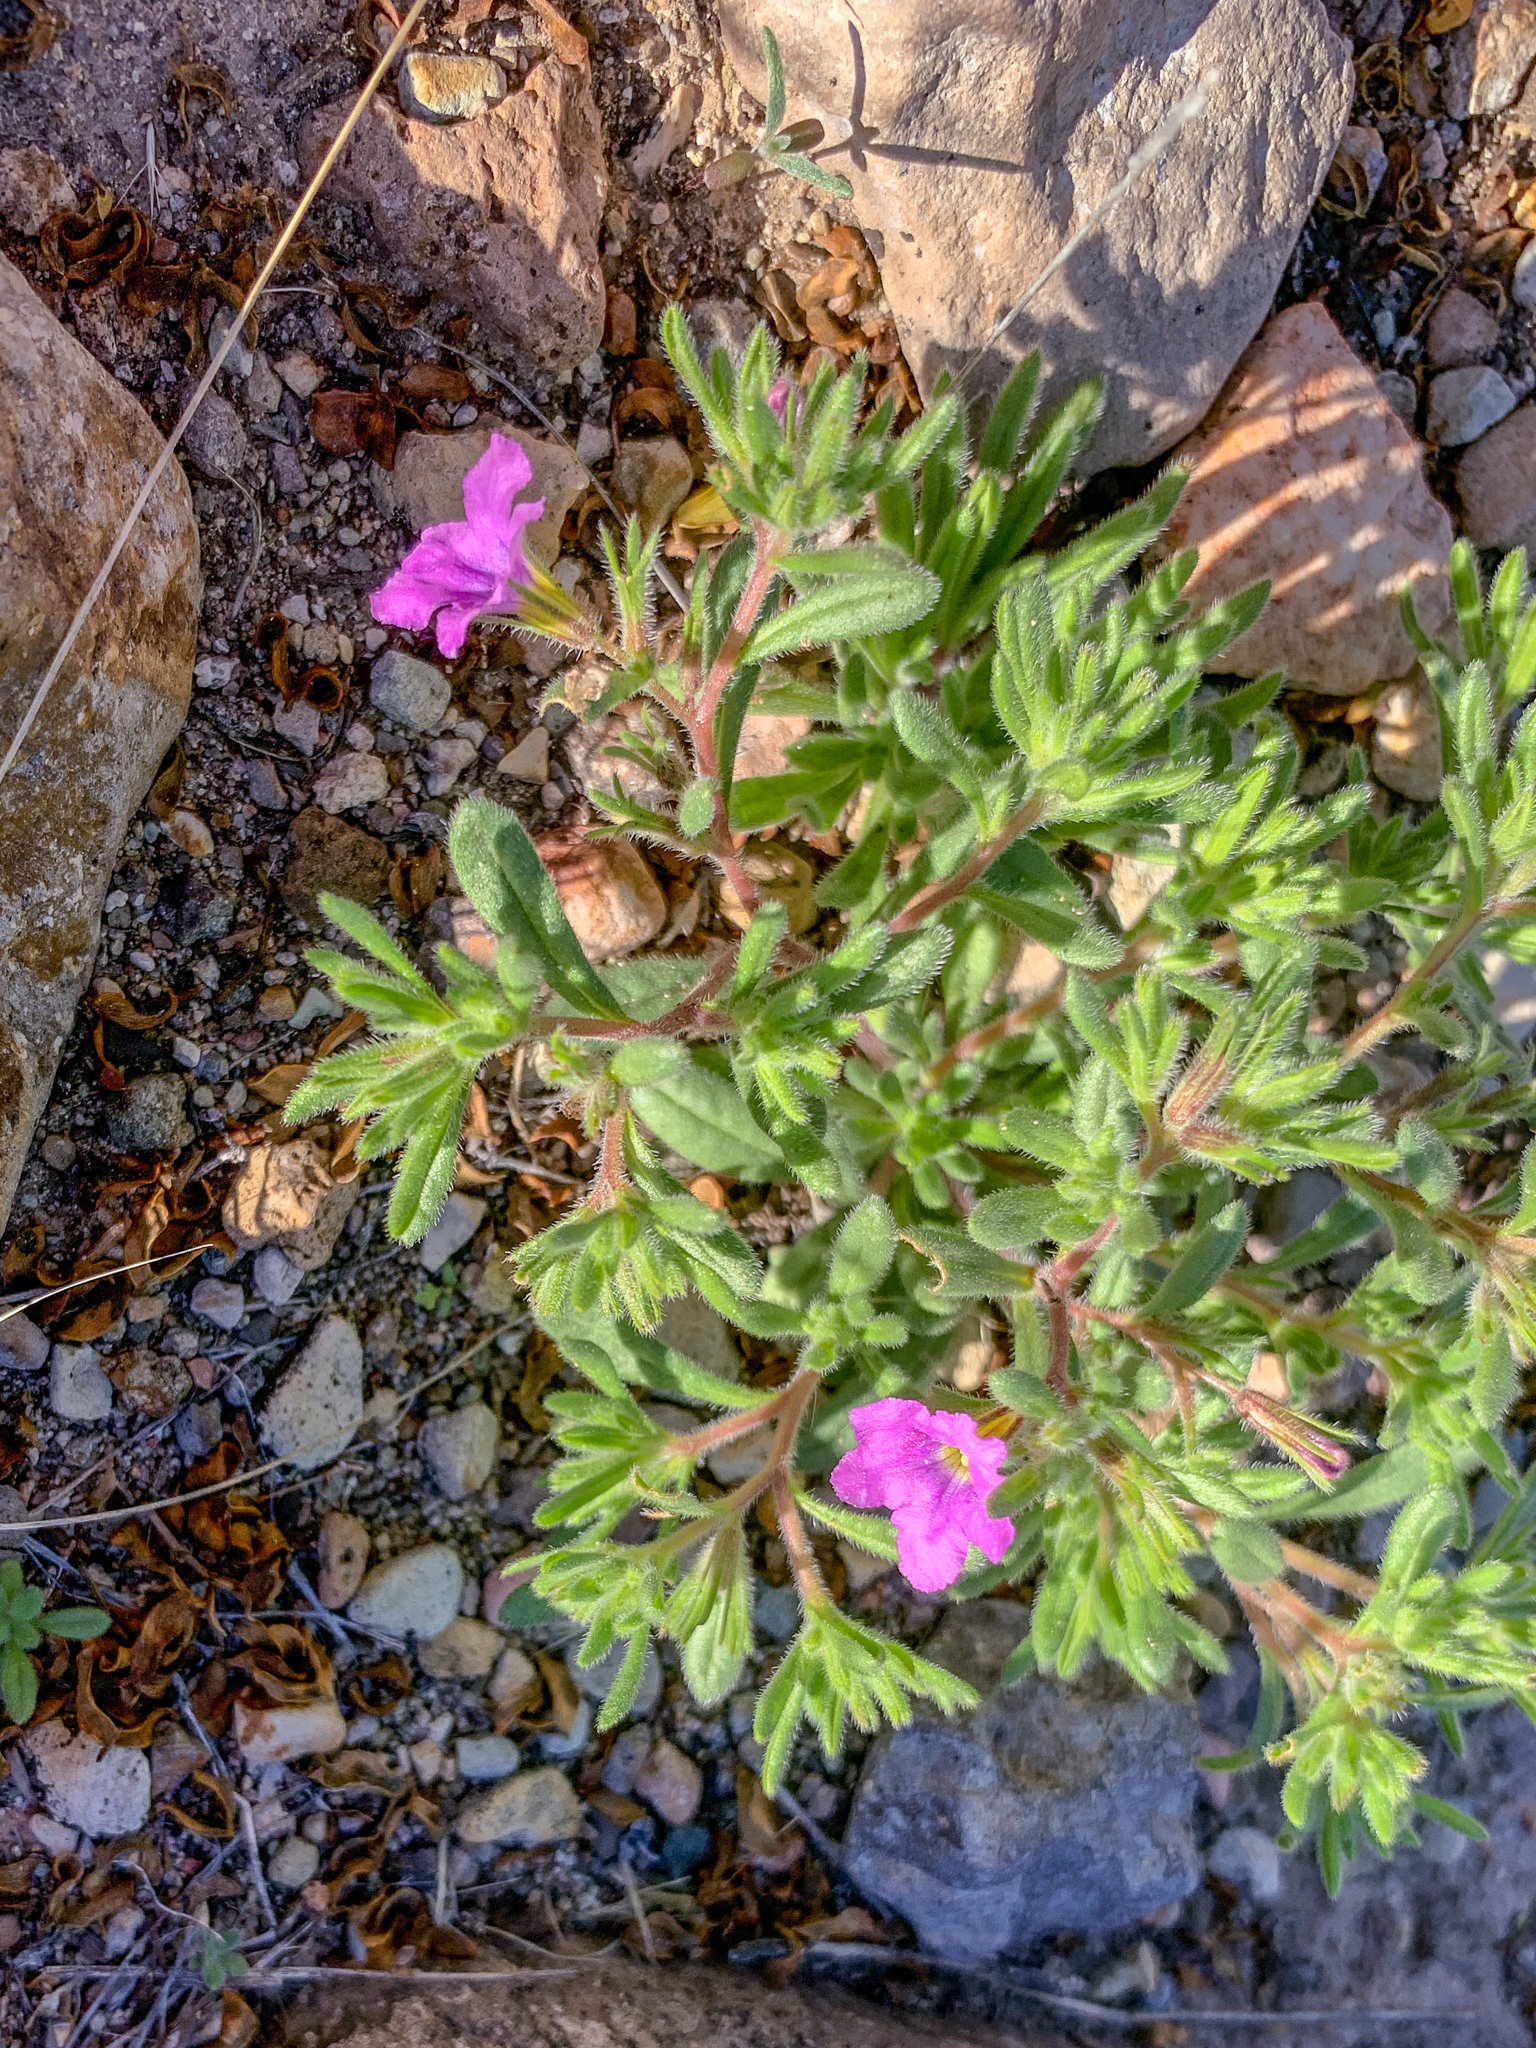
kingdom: Plantae
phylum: Tracheophyta
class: Magnoliopsida
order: Boraginales
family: Namaceae
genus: Nama
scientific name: Nama hispida
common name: Bristly nama
